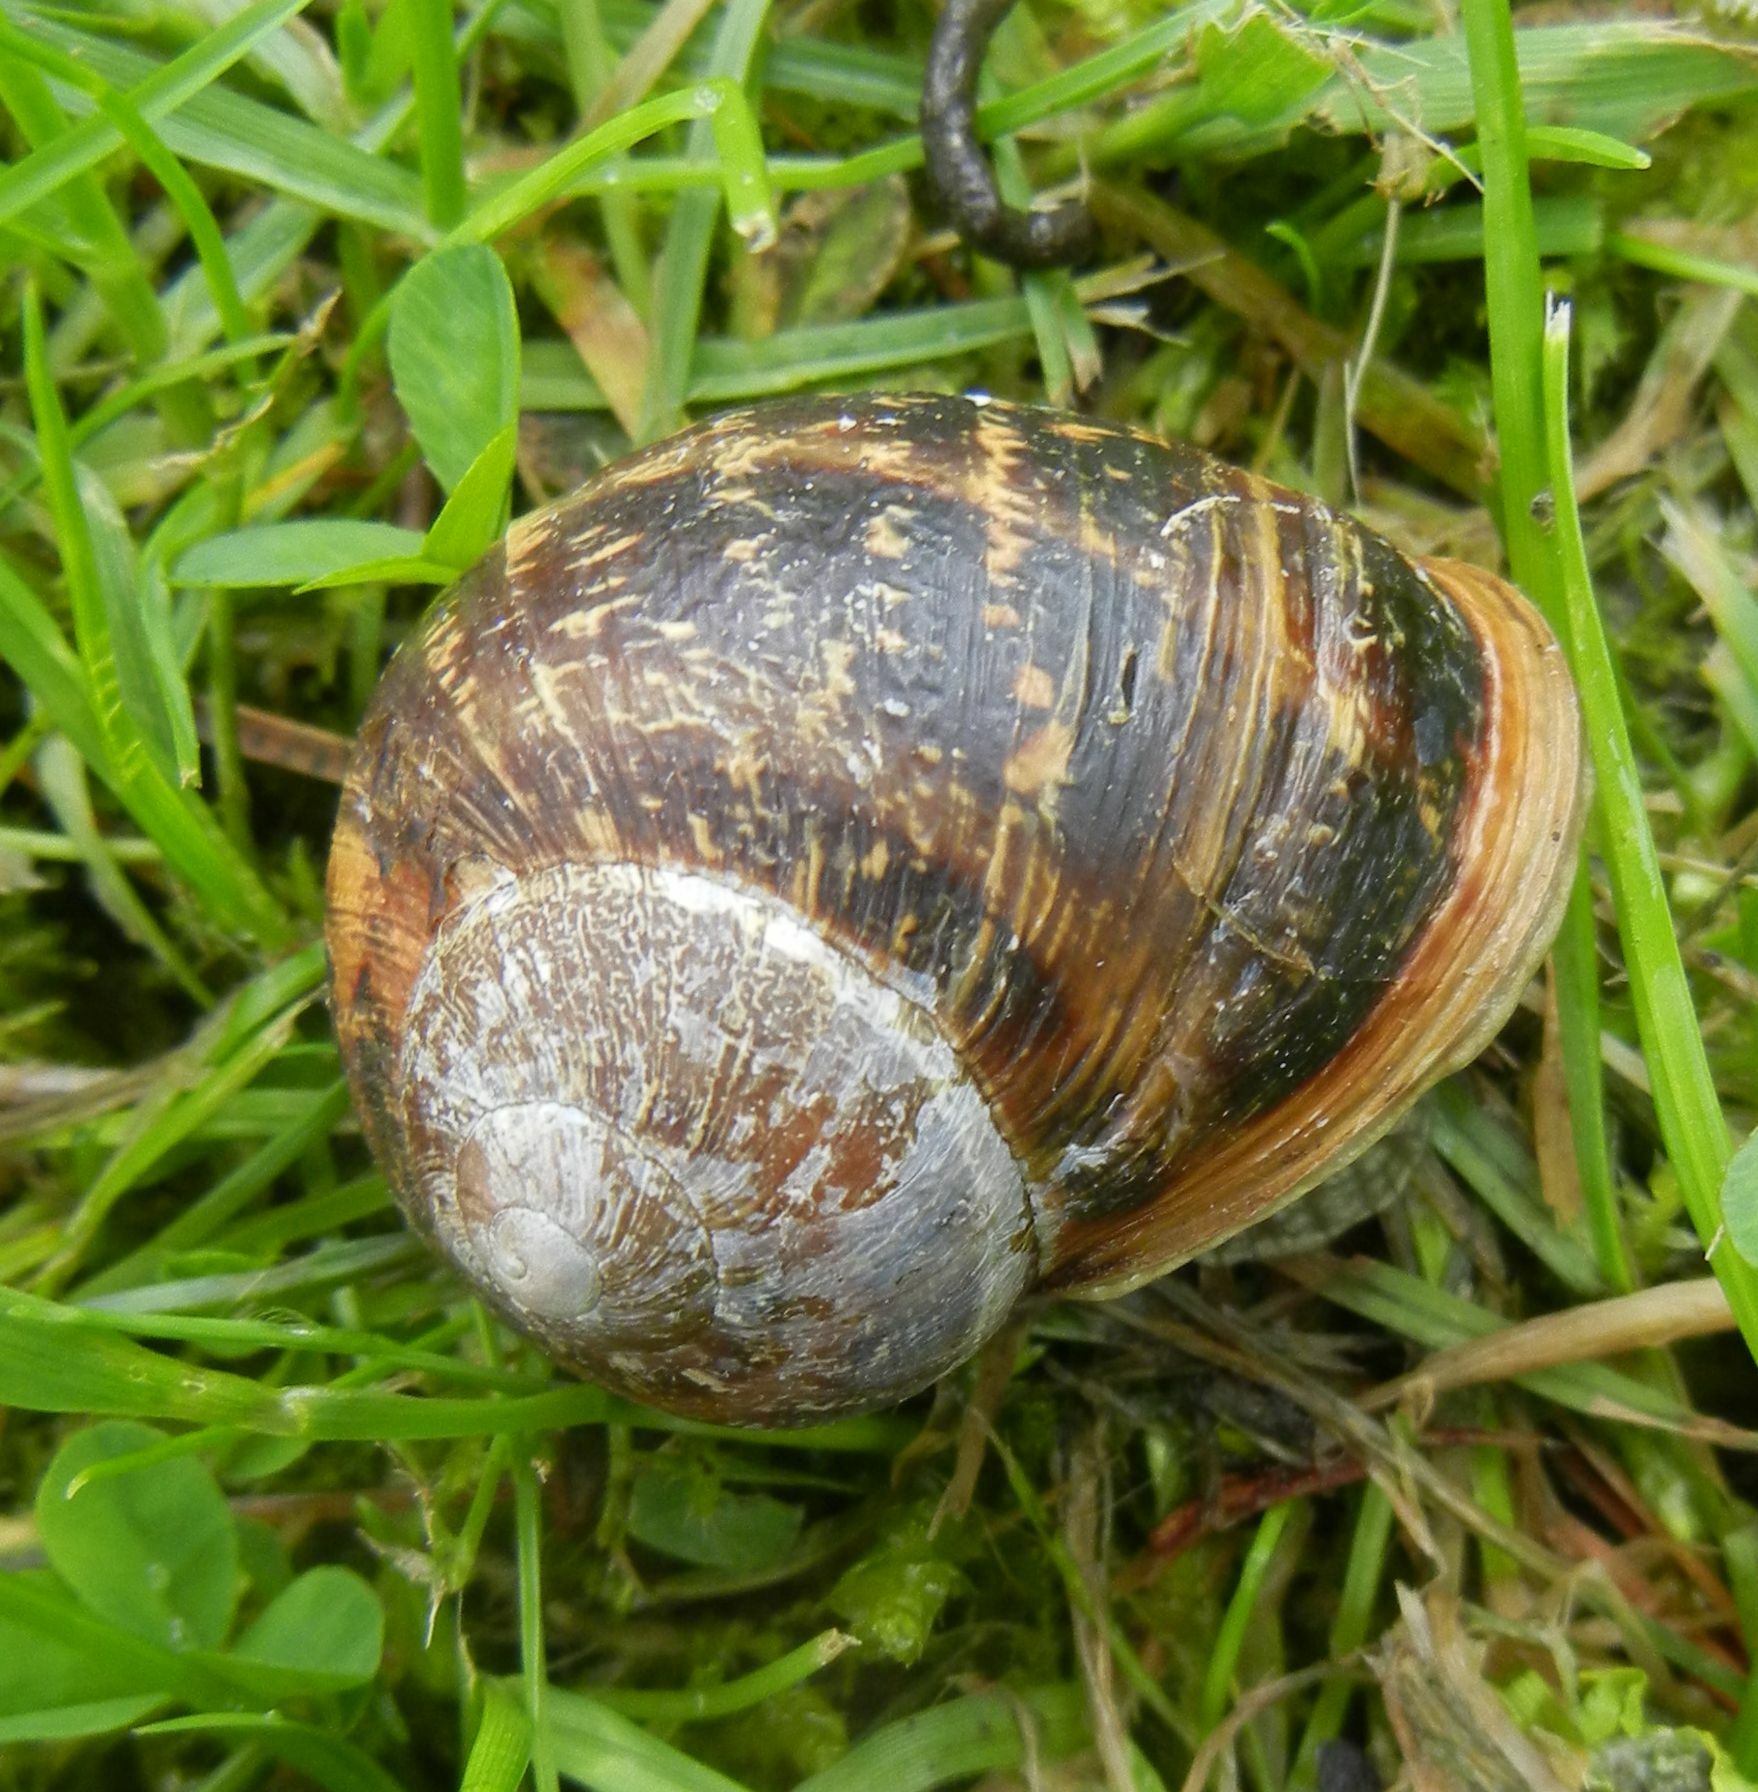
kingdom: Animalia
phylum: Mollusca
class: Gastropoda
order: Stylommatophora
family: Helicidae
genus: Cornu
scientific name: Cornu aspersum
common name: Brown garden snail
